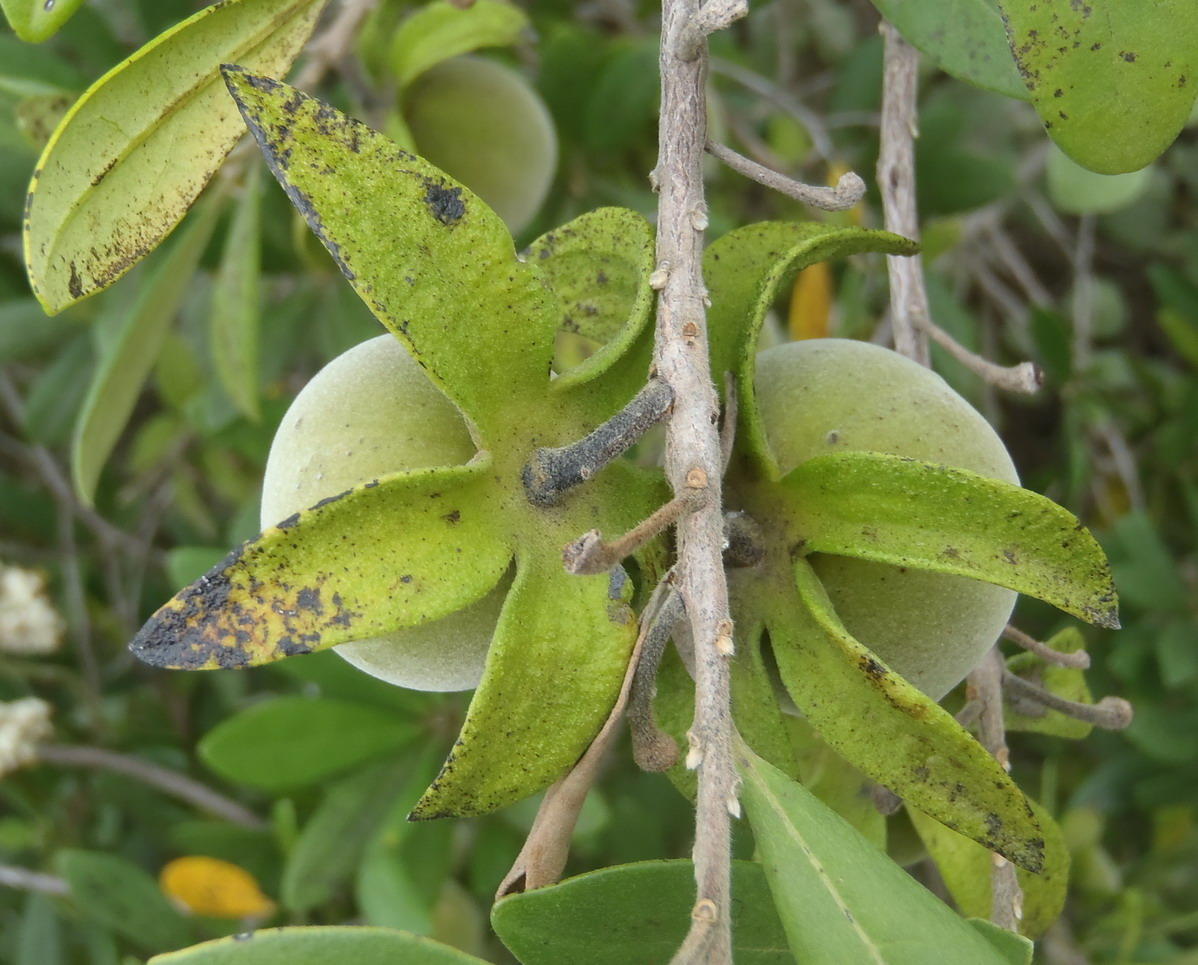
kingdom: Plantae
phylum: Tracheophyta
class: Magnoliopsida
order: Ericales
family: Ebenaceae
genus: Diospyros
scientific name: Diospyros dichrophylla
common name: Common star-apple
